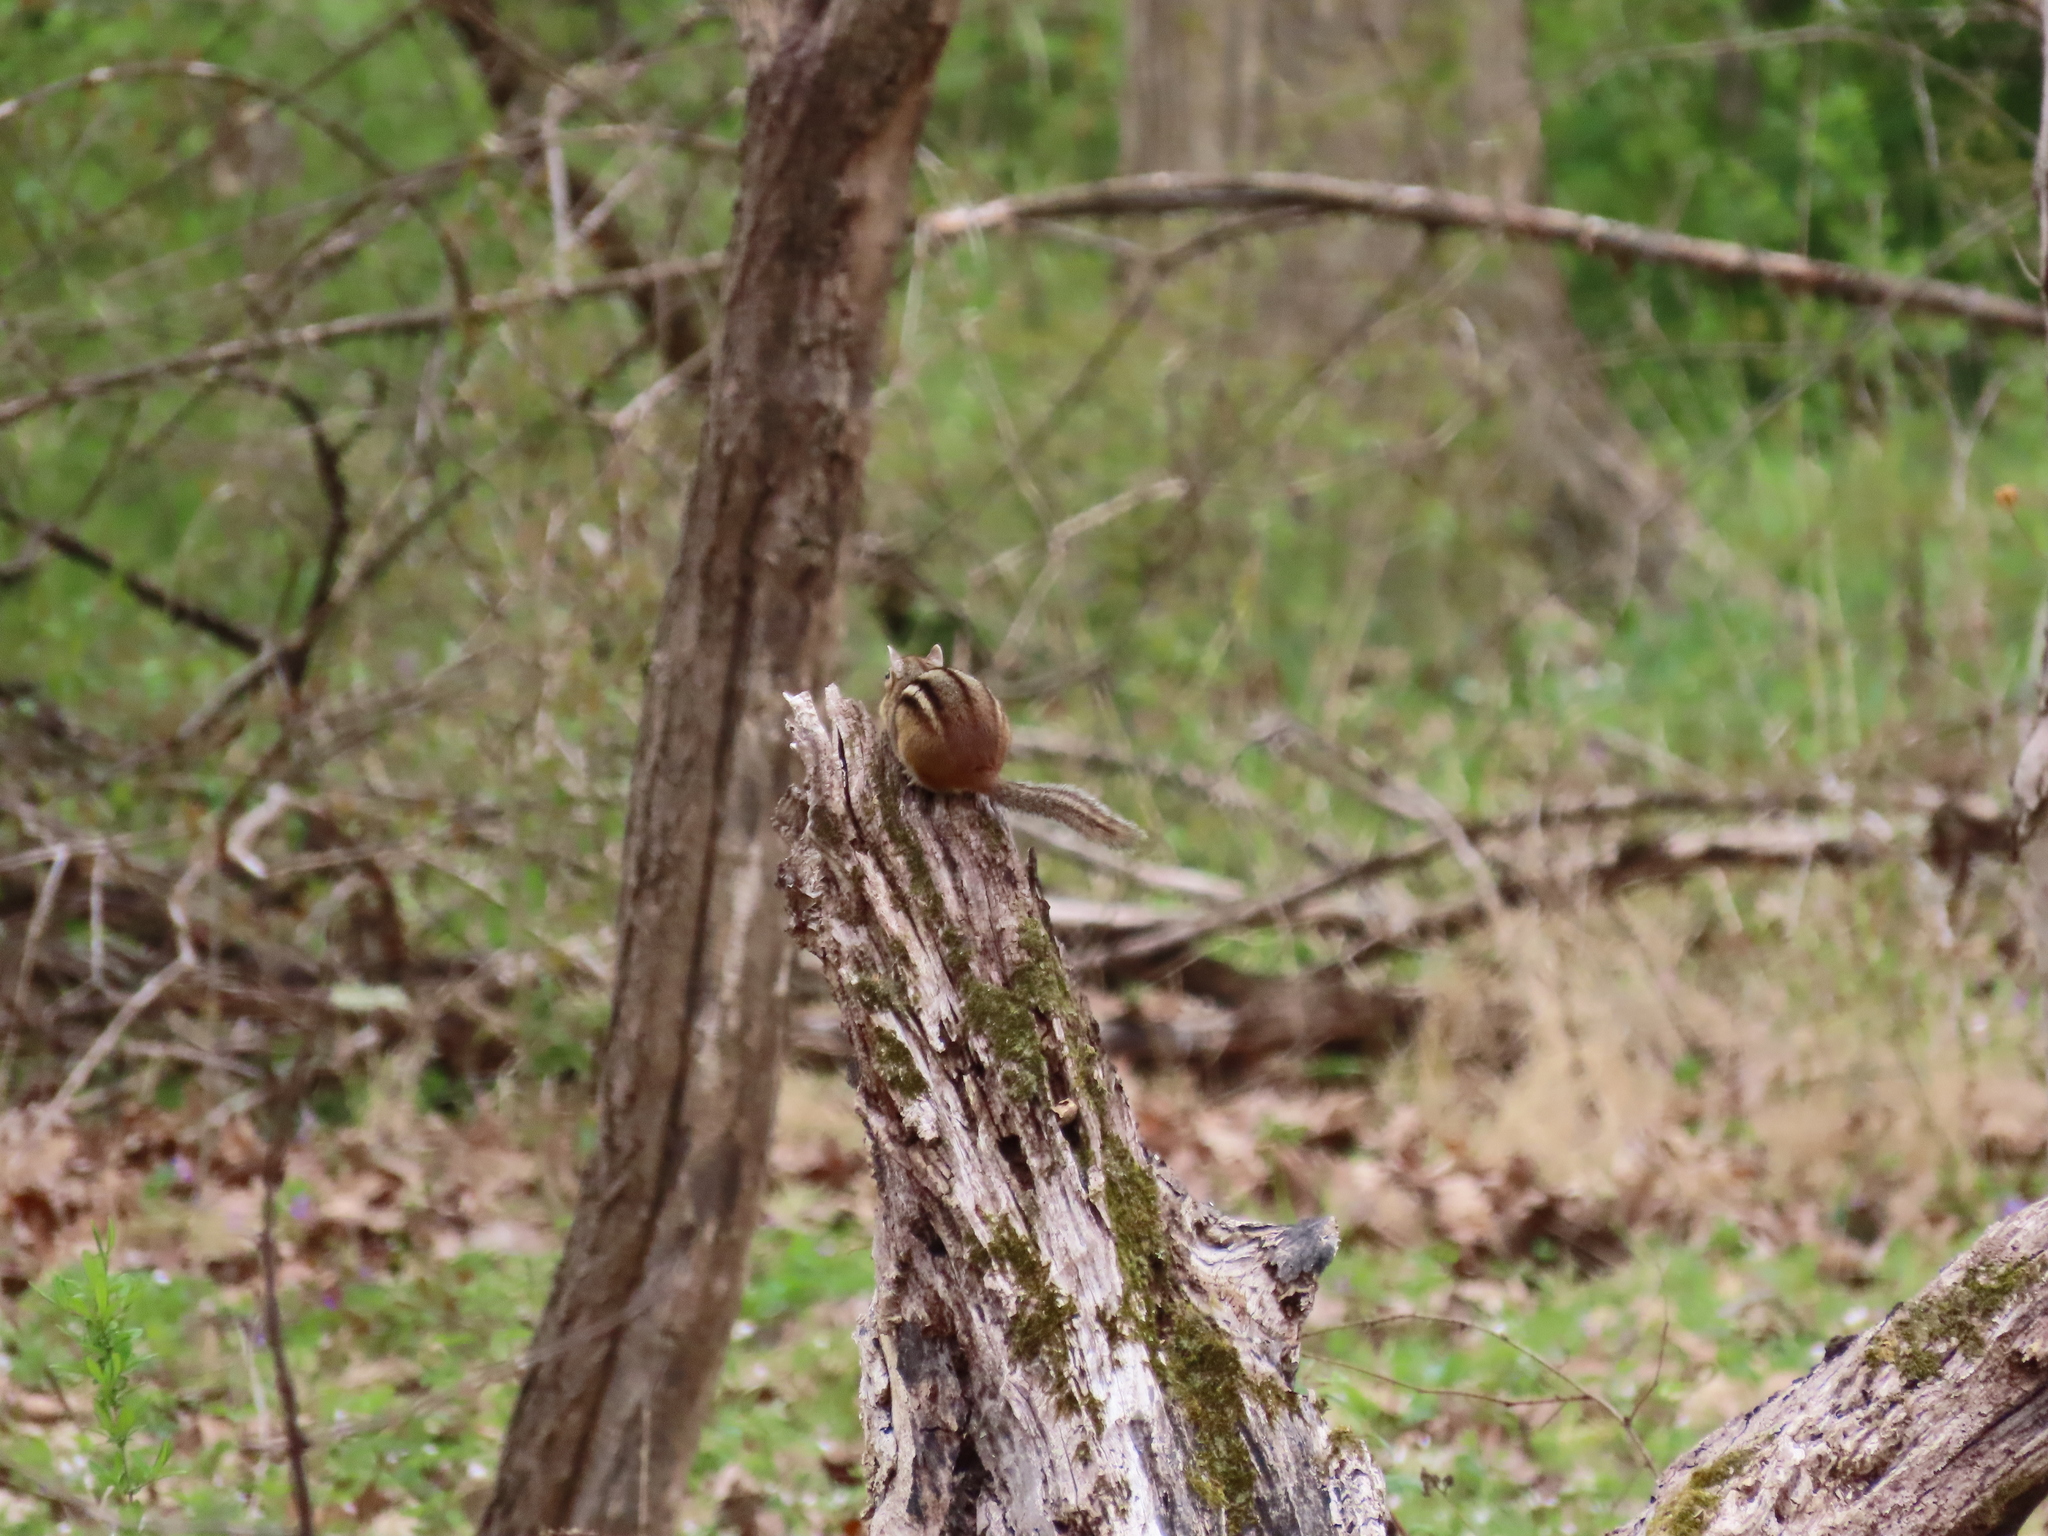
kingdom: Animalia
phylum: Chordata
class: Mammalia
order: Rodentia
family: Sciuridae
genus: Tamias
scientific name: Tamias striatus
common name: Eastern chipmunk
